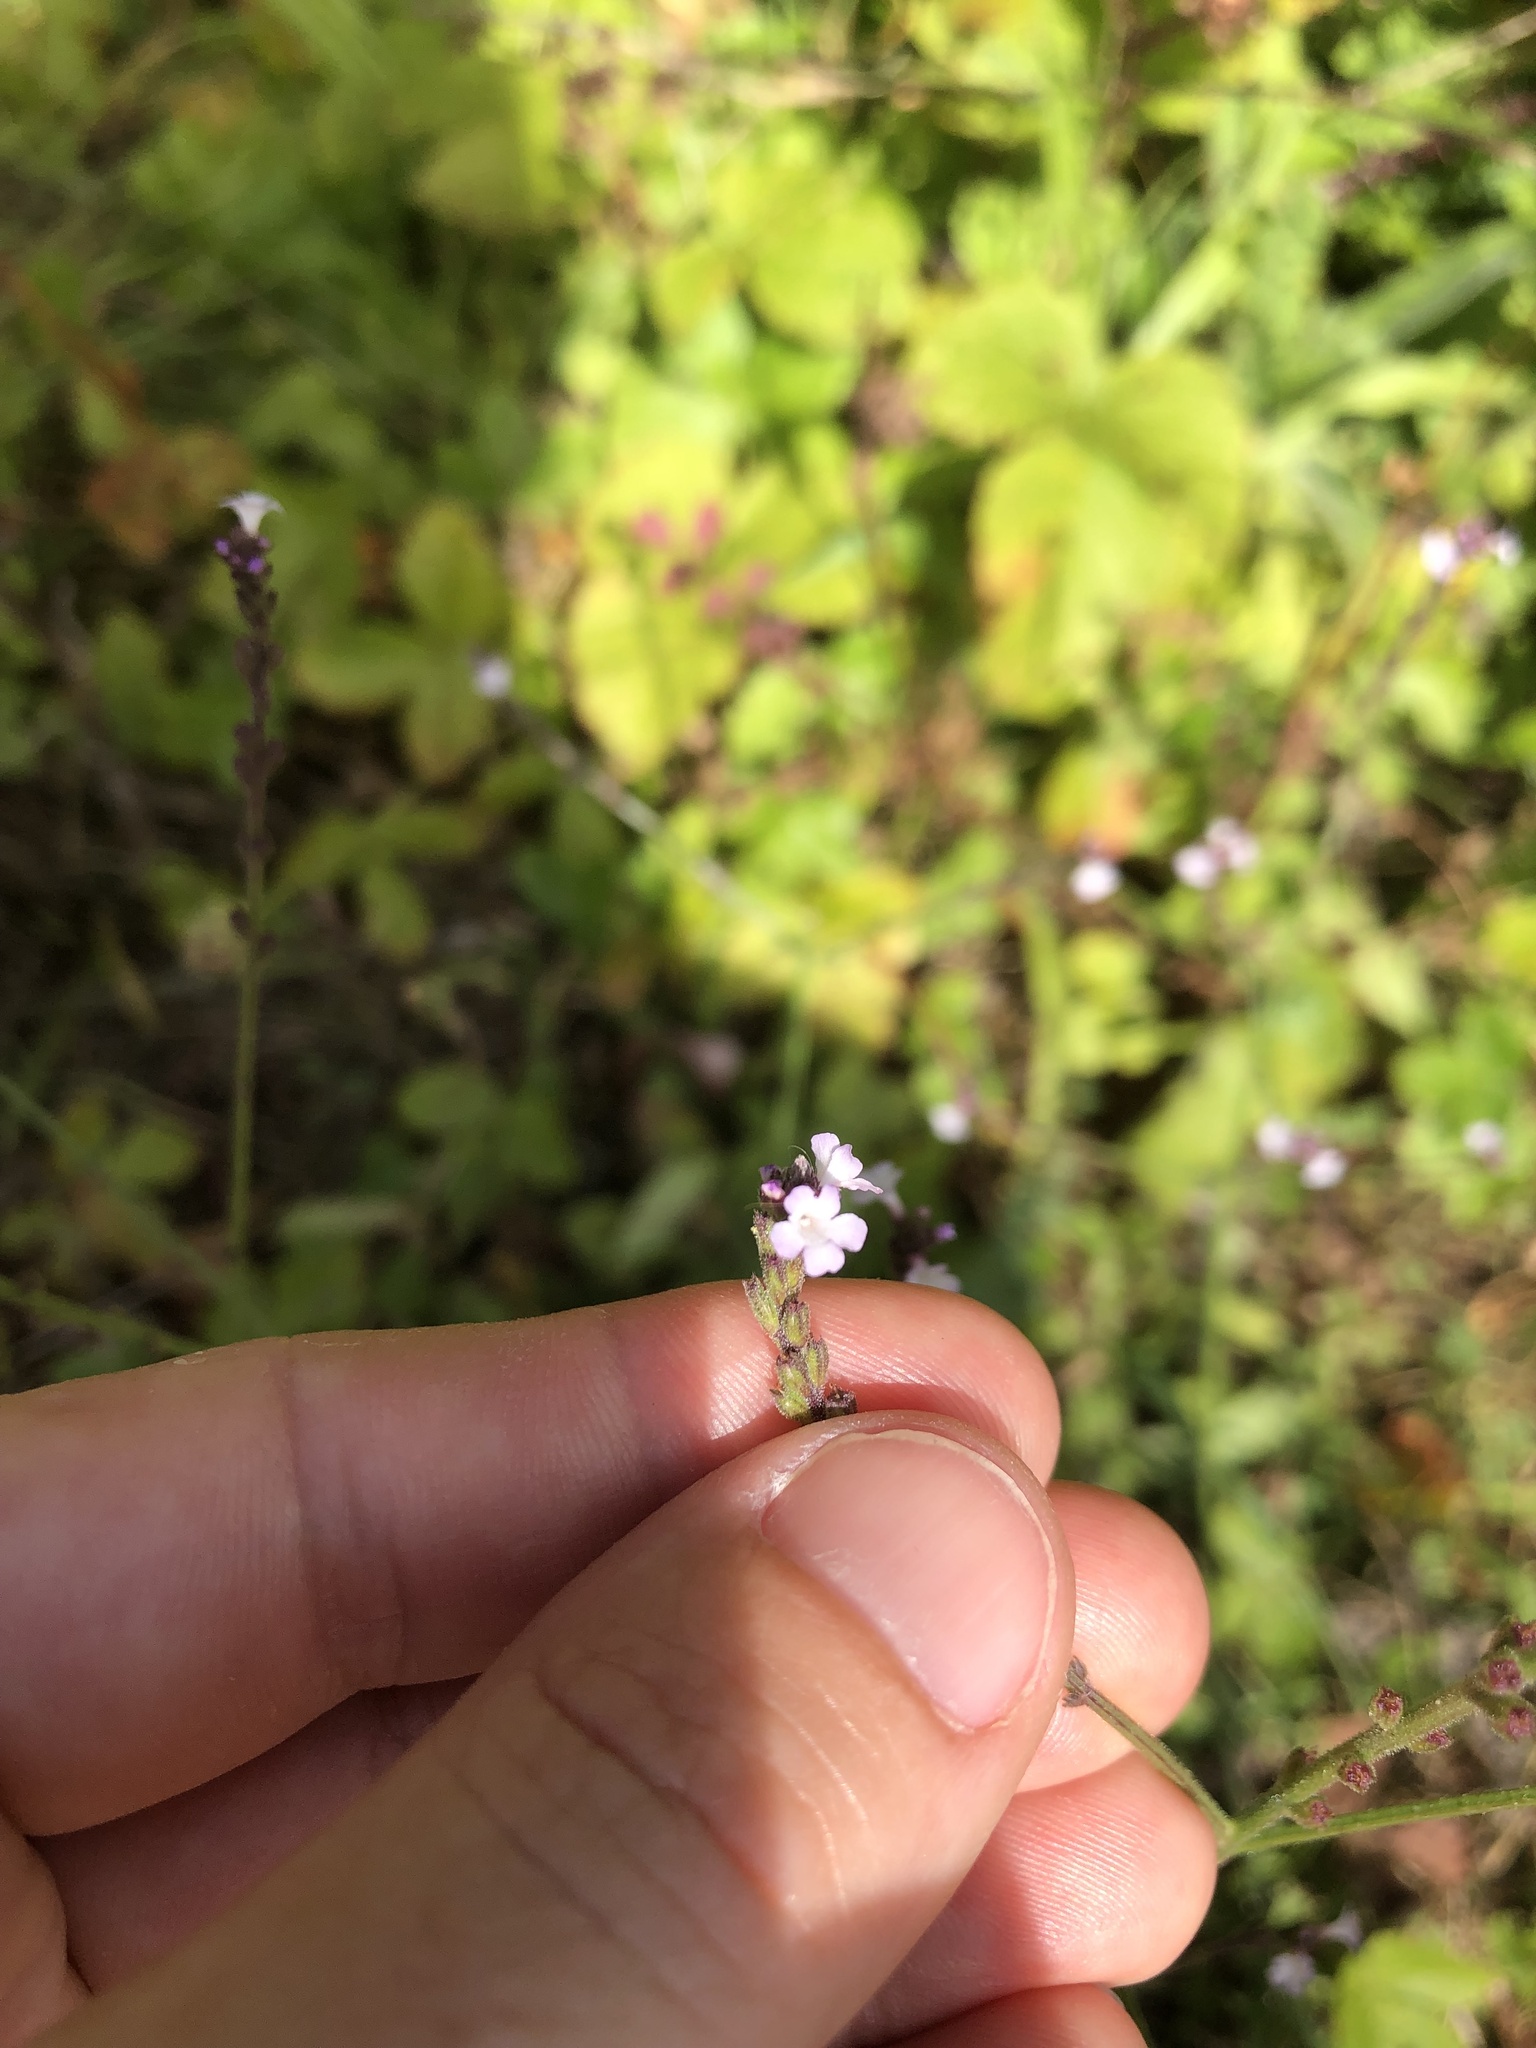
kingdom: Plantae
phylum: Tracheophyta
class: Magnoliopsida
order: Lamiales
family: Verbenaceae
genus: Verbena
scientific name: Verbena officinalis
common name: Vervain
